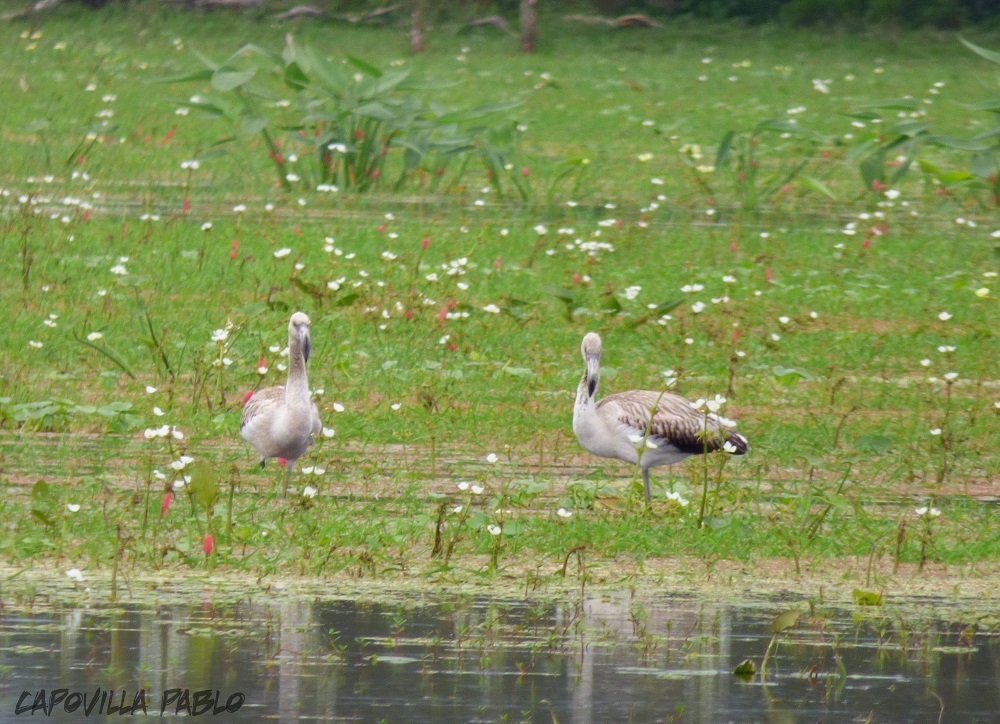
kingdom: Animalia
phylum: Chordata
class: Aves
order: Phoenicopteriformes
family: Phoenicopteridae
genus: Phoenicopterus
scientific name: Phoenicopterus chilensis
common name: Chilean flamingo
